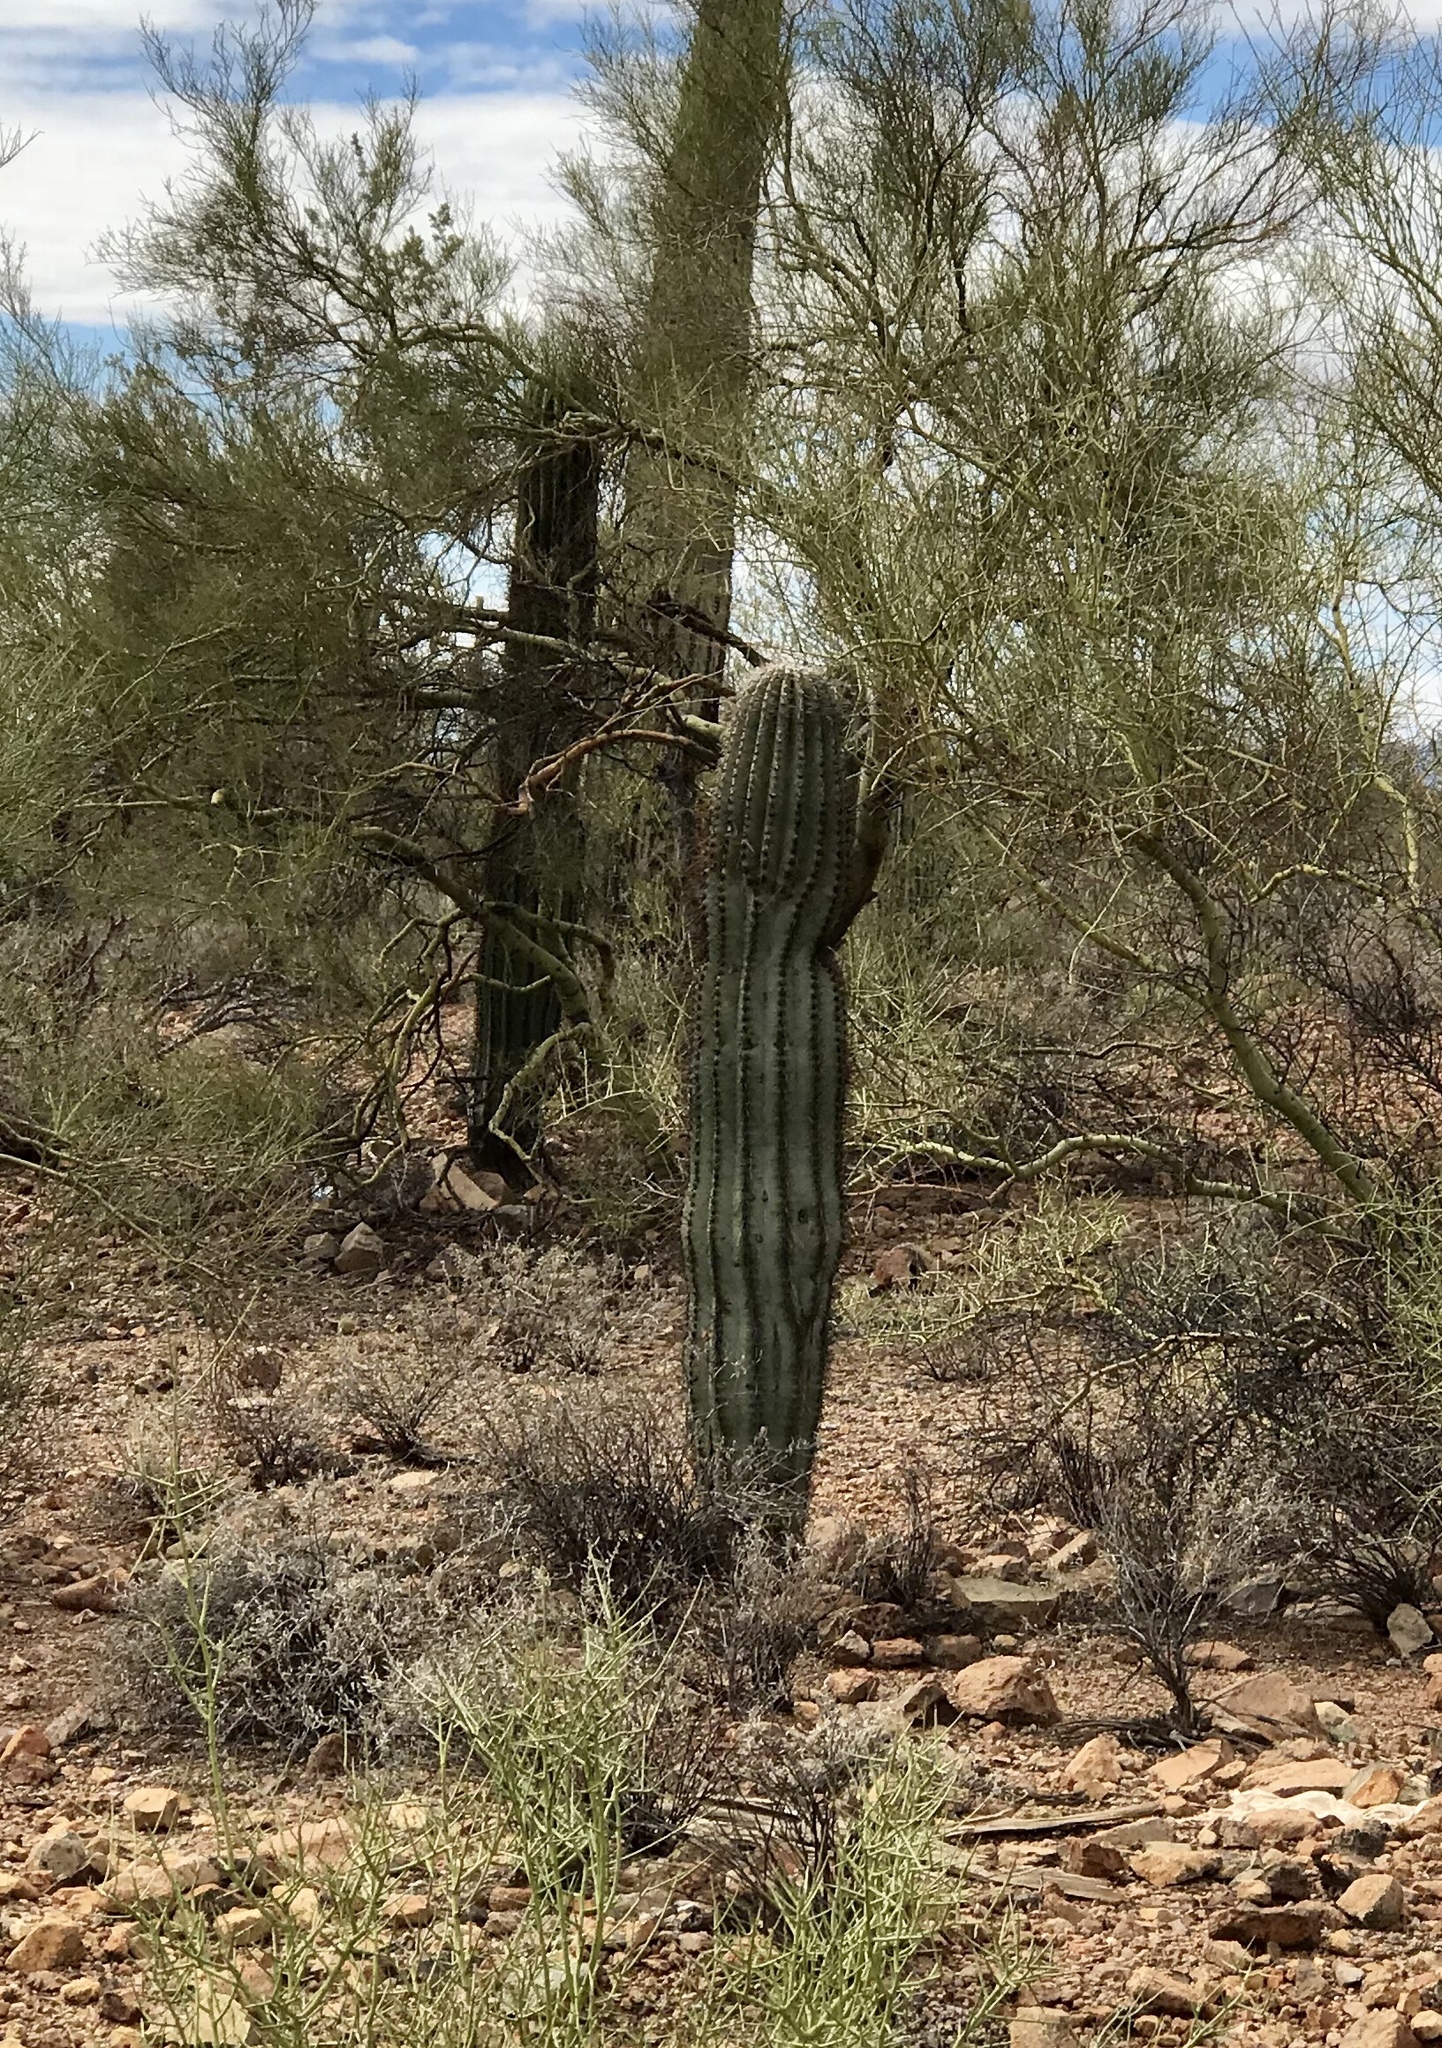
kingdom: Plantae
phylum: Tracheophyta
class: Magnoliopsida
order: Caryophyllales
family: Cactaceae
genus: Carnegiea
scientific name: Carnegiea gigantea
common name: Saguaro
